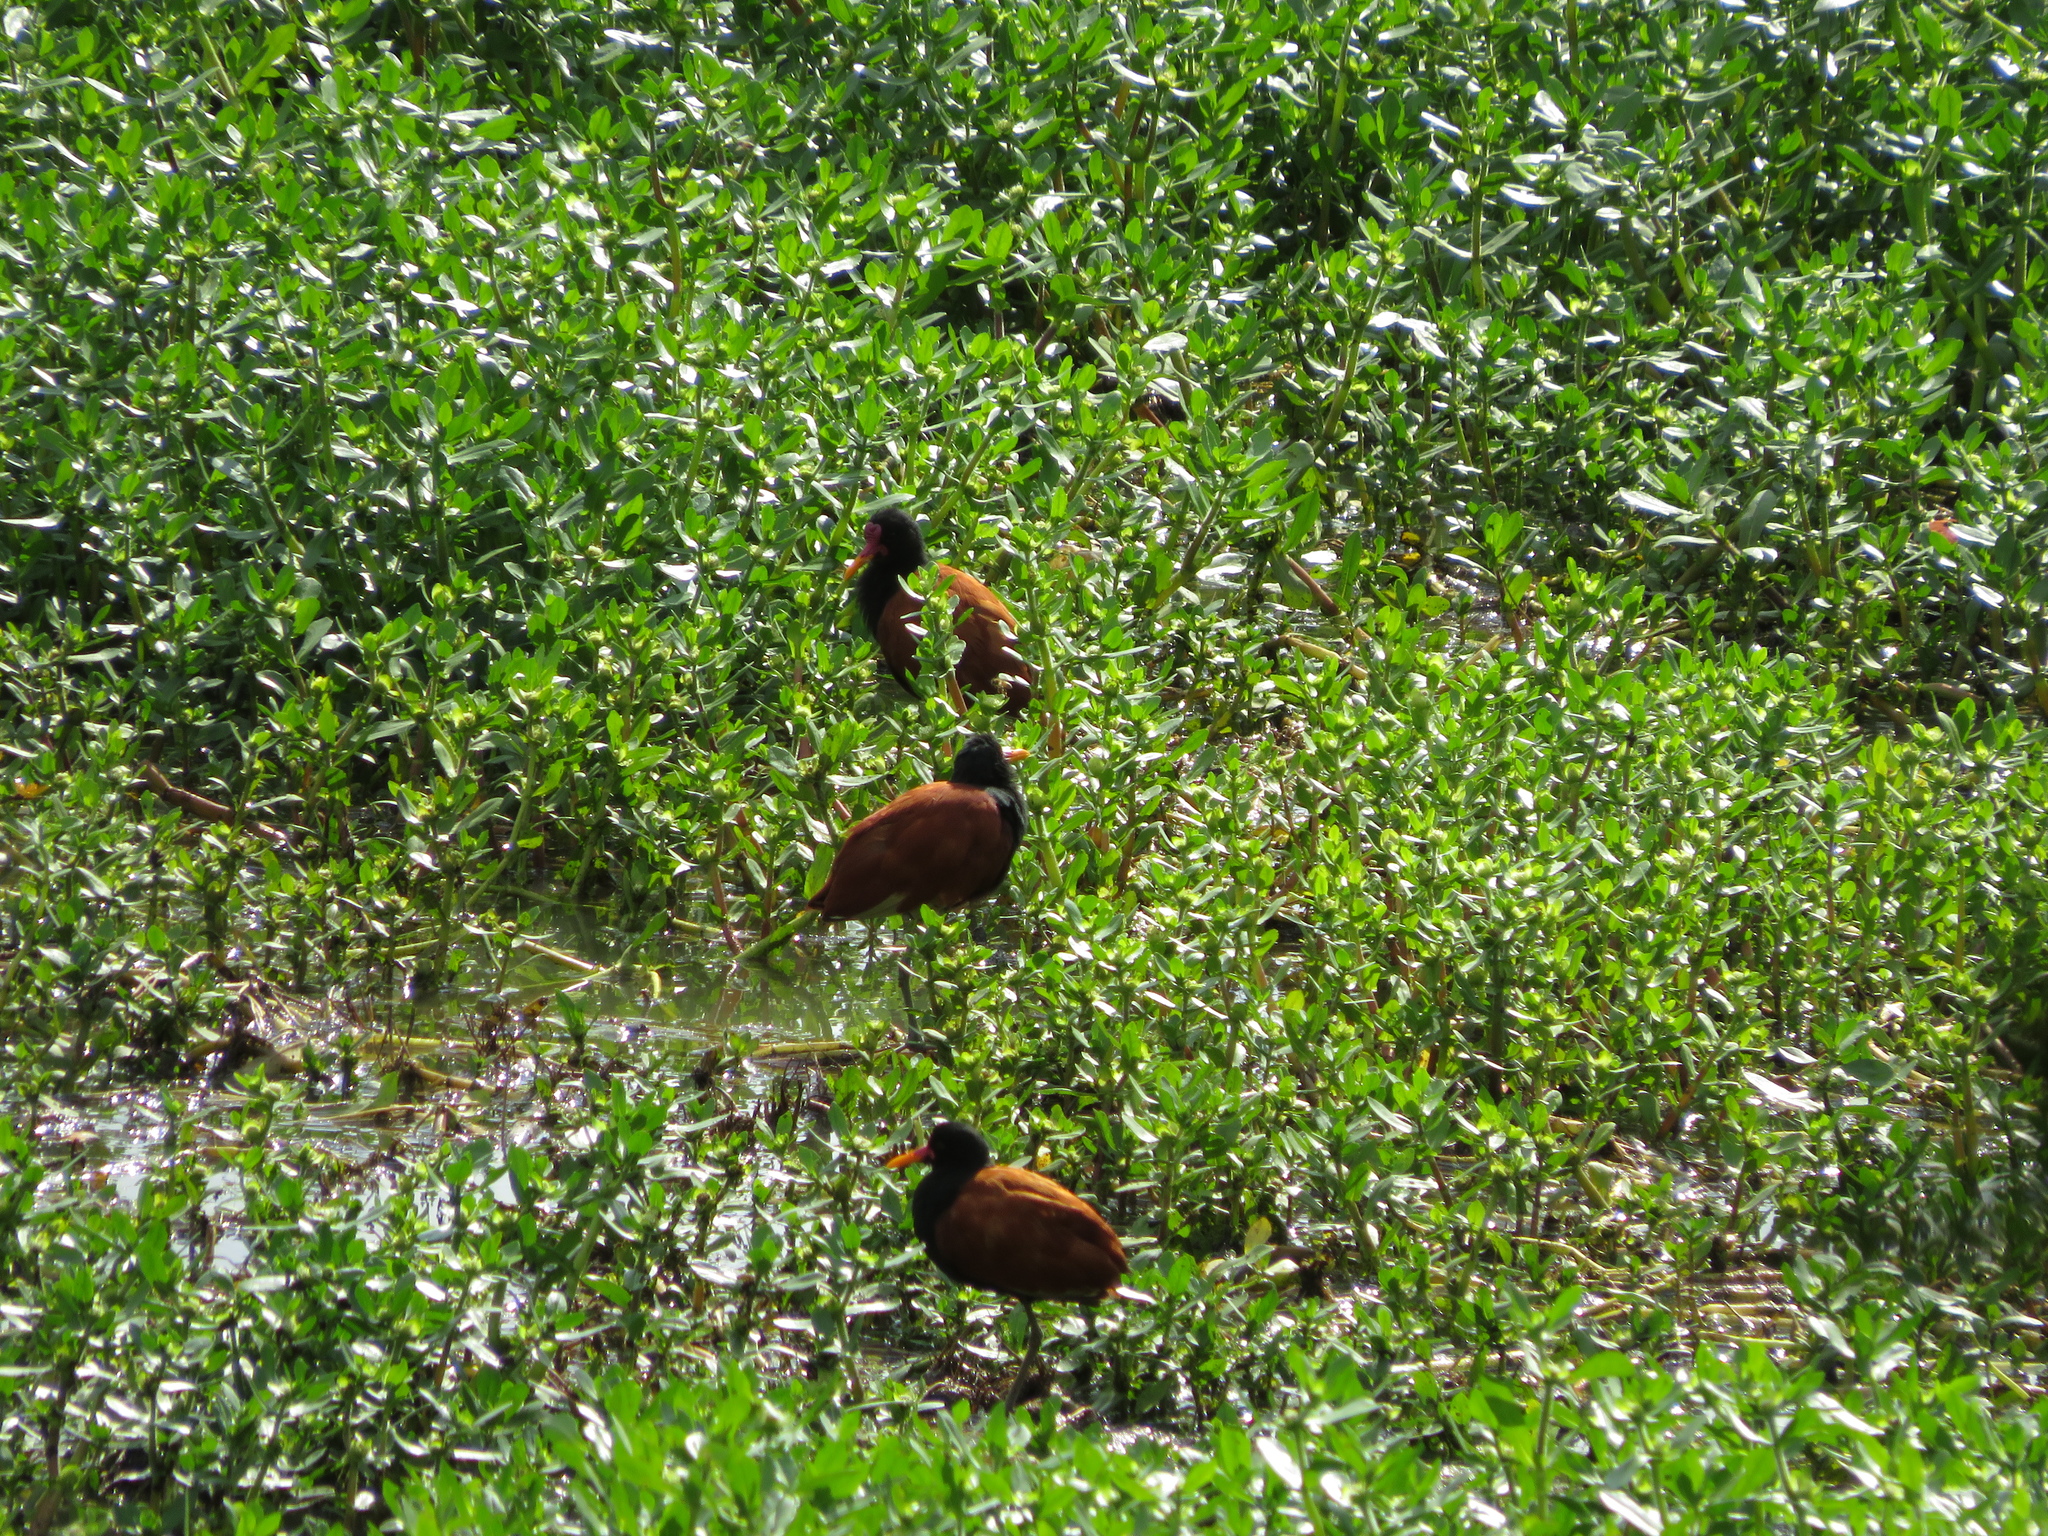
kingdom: Animalia
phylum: Chordata
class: Aves
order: Charadriiformes
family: Jacanidae
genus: Jacana
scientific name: Jacana jacana
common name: Wattled jacana
